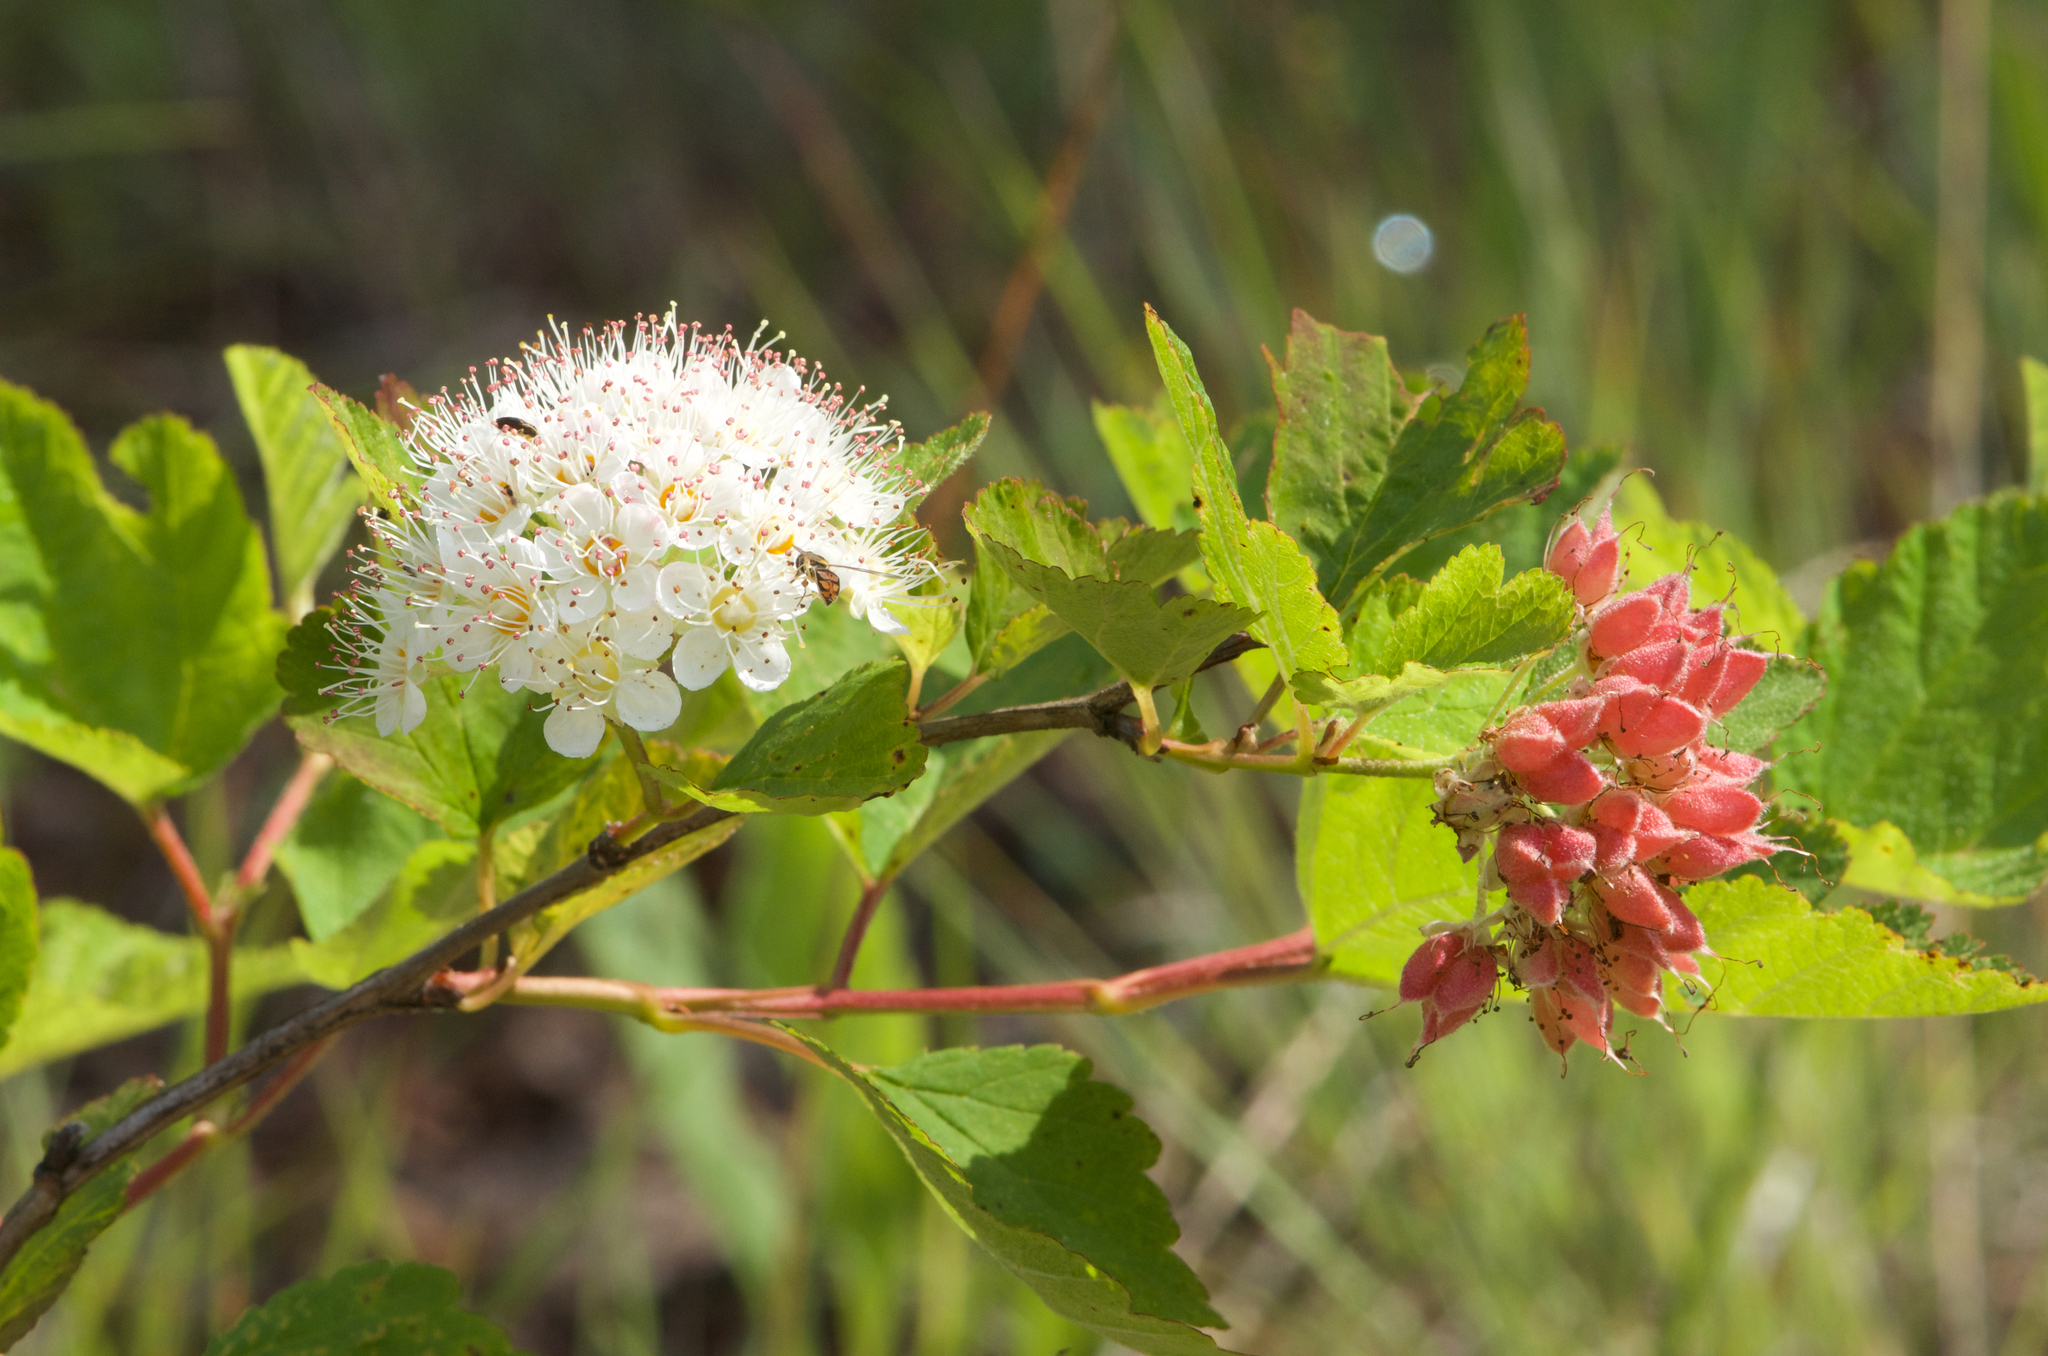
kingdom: Plantae
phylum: Tracheophyta
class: Magnoliopsida
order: Rosales
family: Rosaceae
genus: Physocarpus
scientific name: Physocarpus opulifolius
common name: Ninebark
